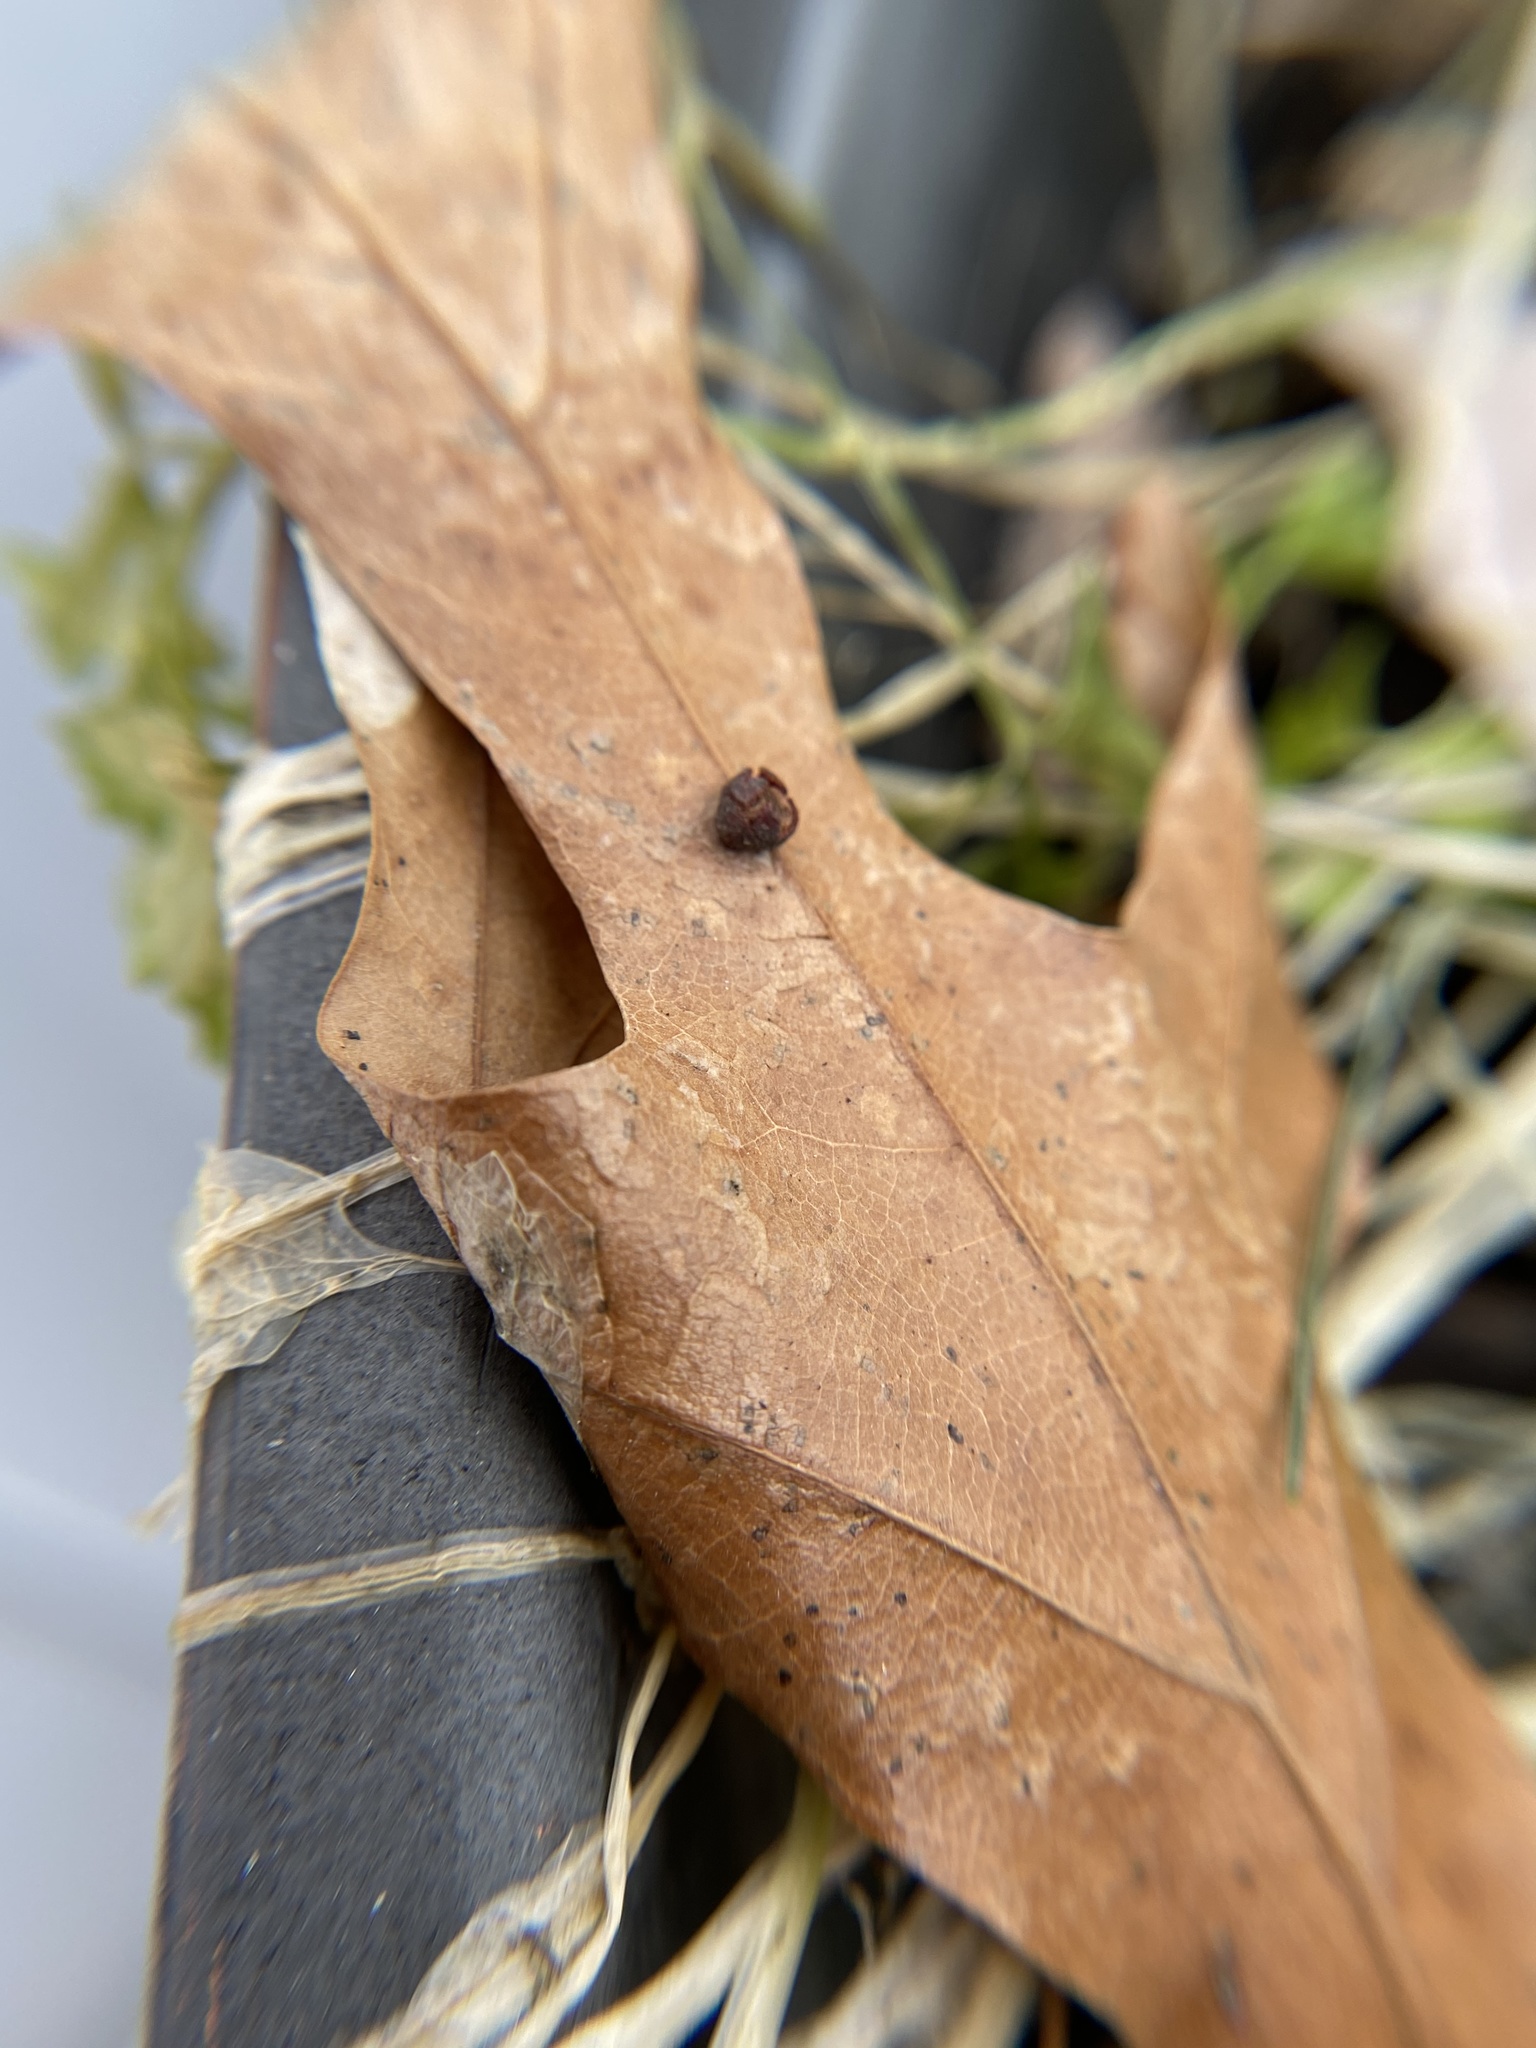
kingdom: Animalia
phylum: Arthropoda
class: Insecta
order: Diptera
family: Cecidomyiidae
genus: Polystepha
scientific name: Polystepha globosa
